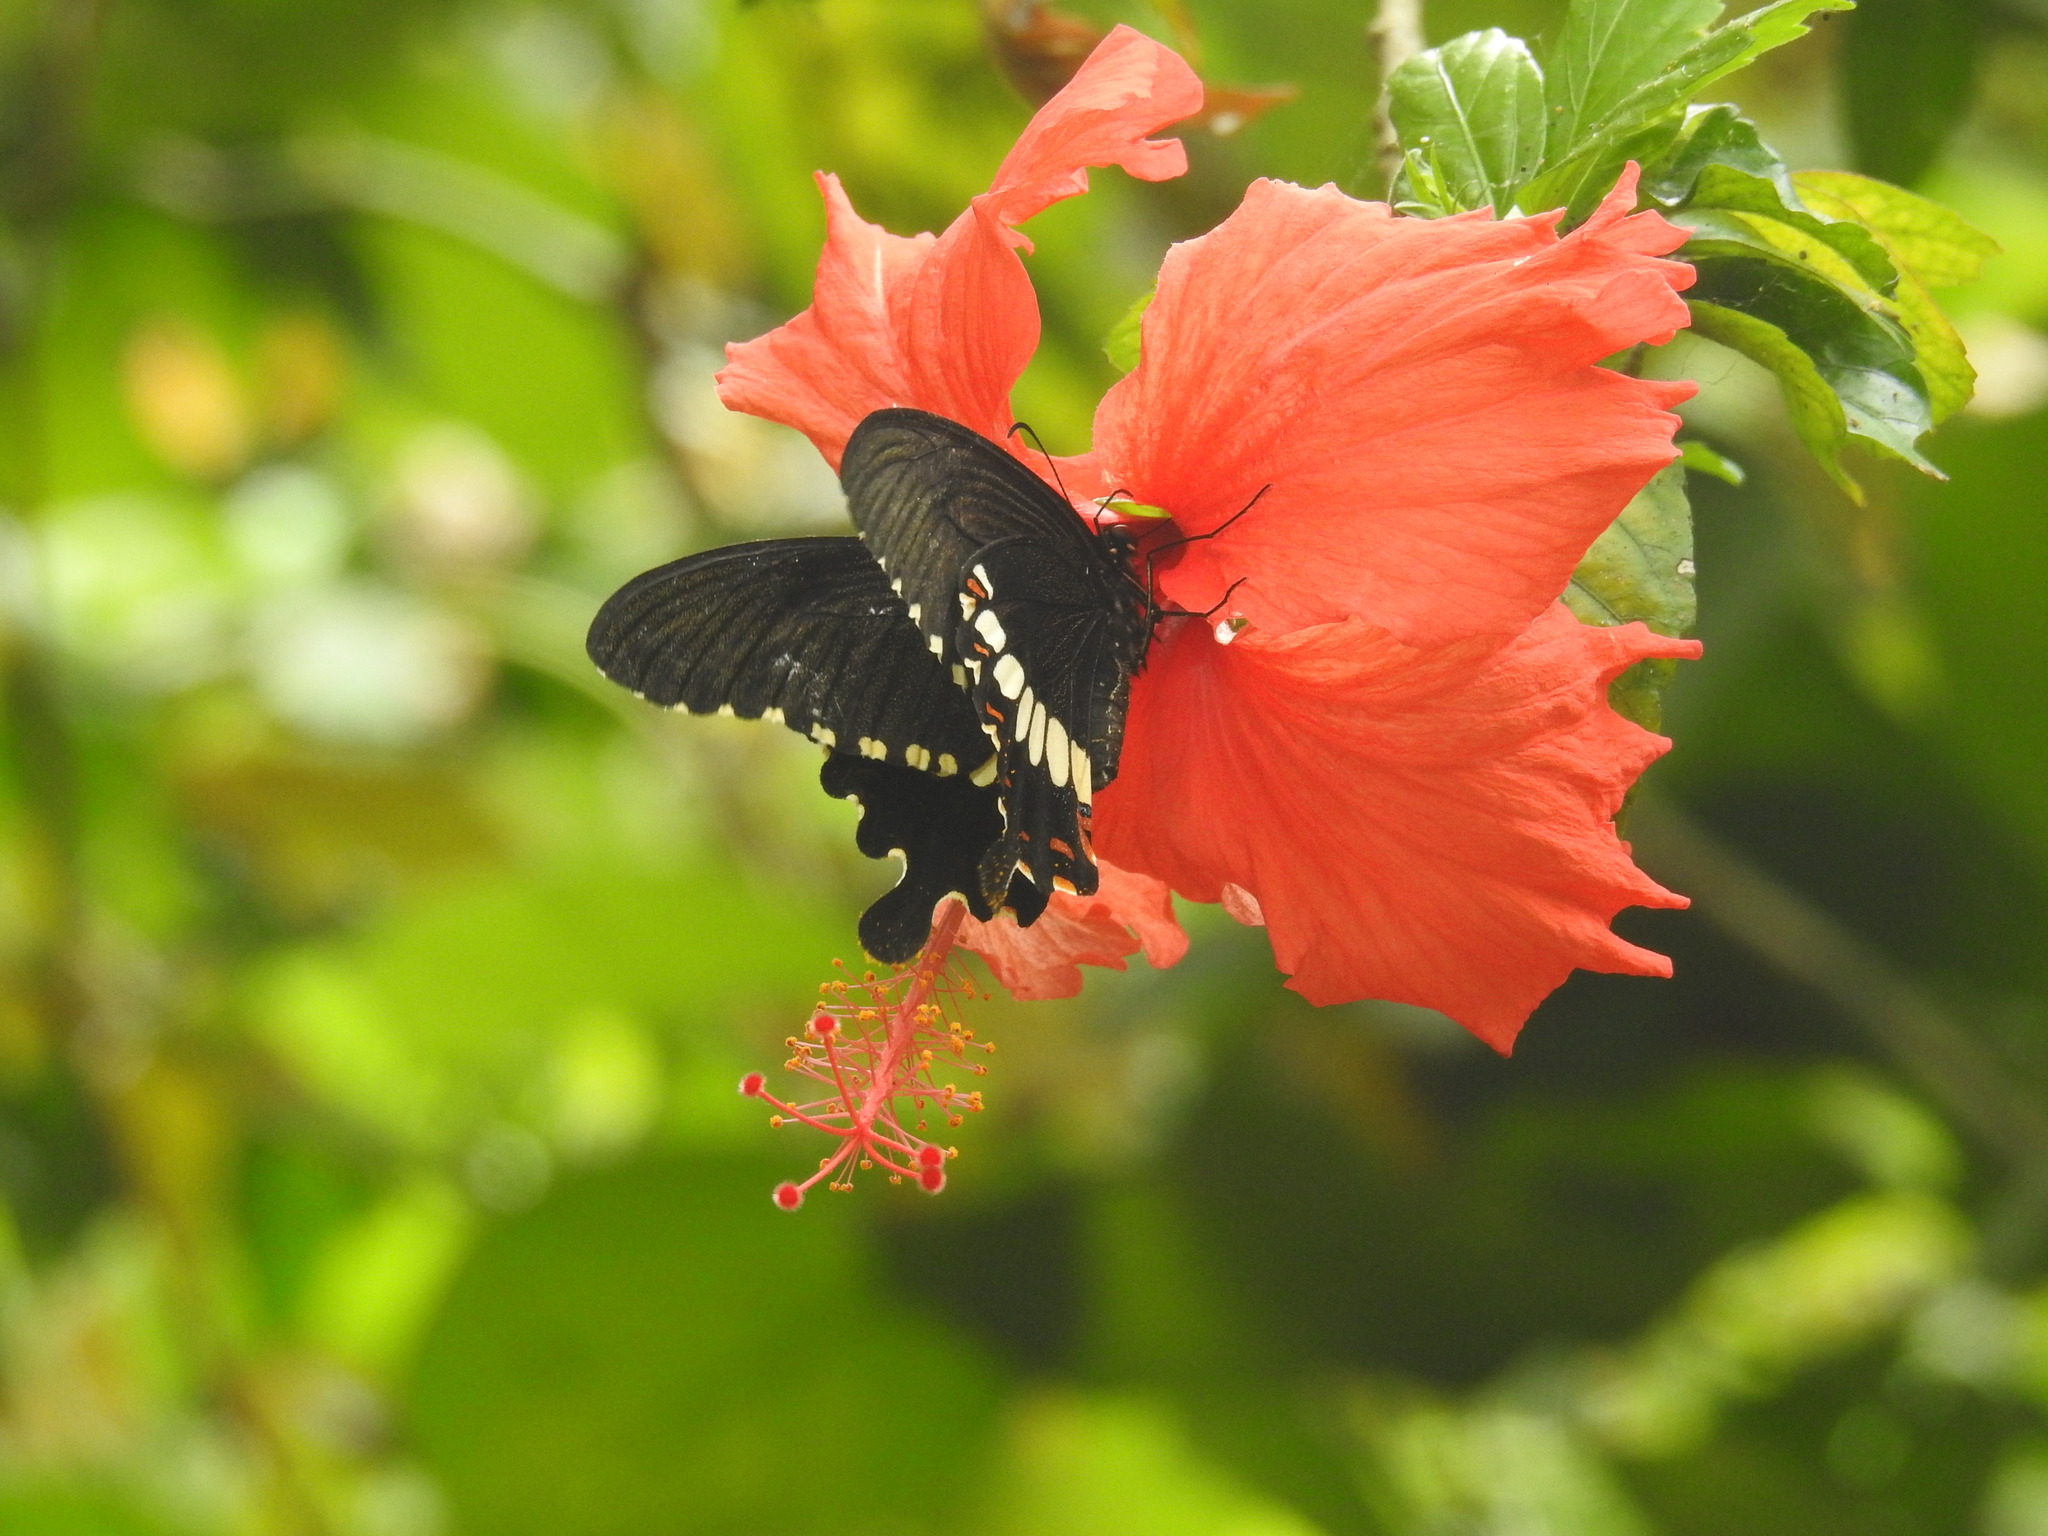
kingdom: Animalia
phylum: Arthropoda
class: Insecta
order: Lepidoptera
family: Papilionidae
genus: Papilio
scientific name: Papilio polytes
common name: Common mormon
